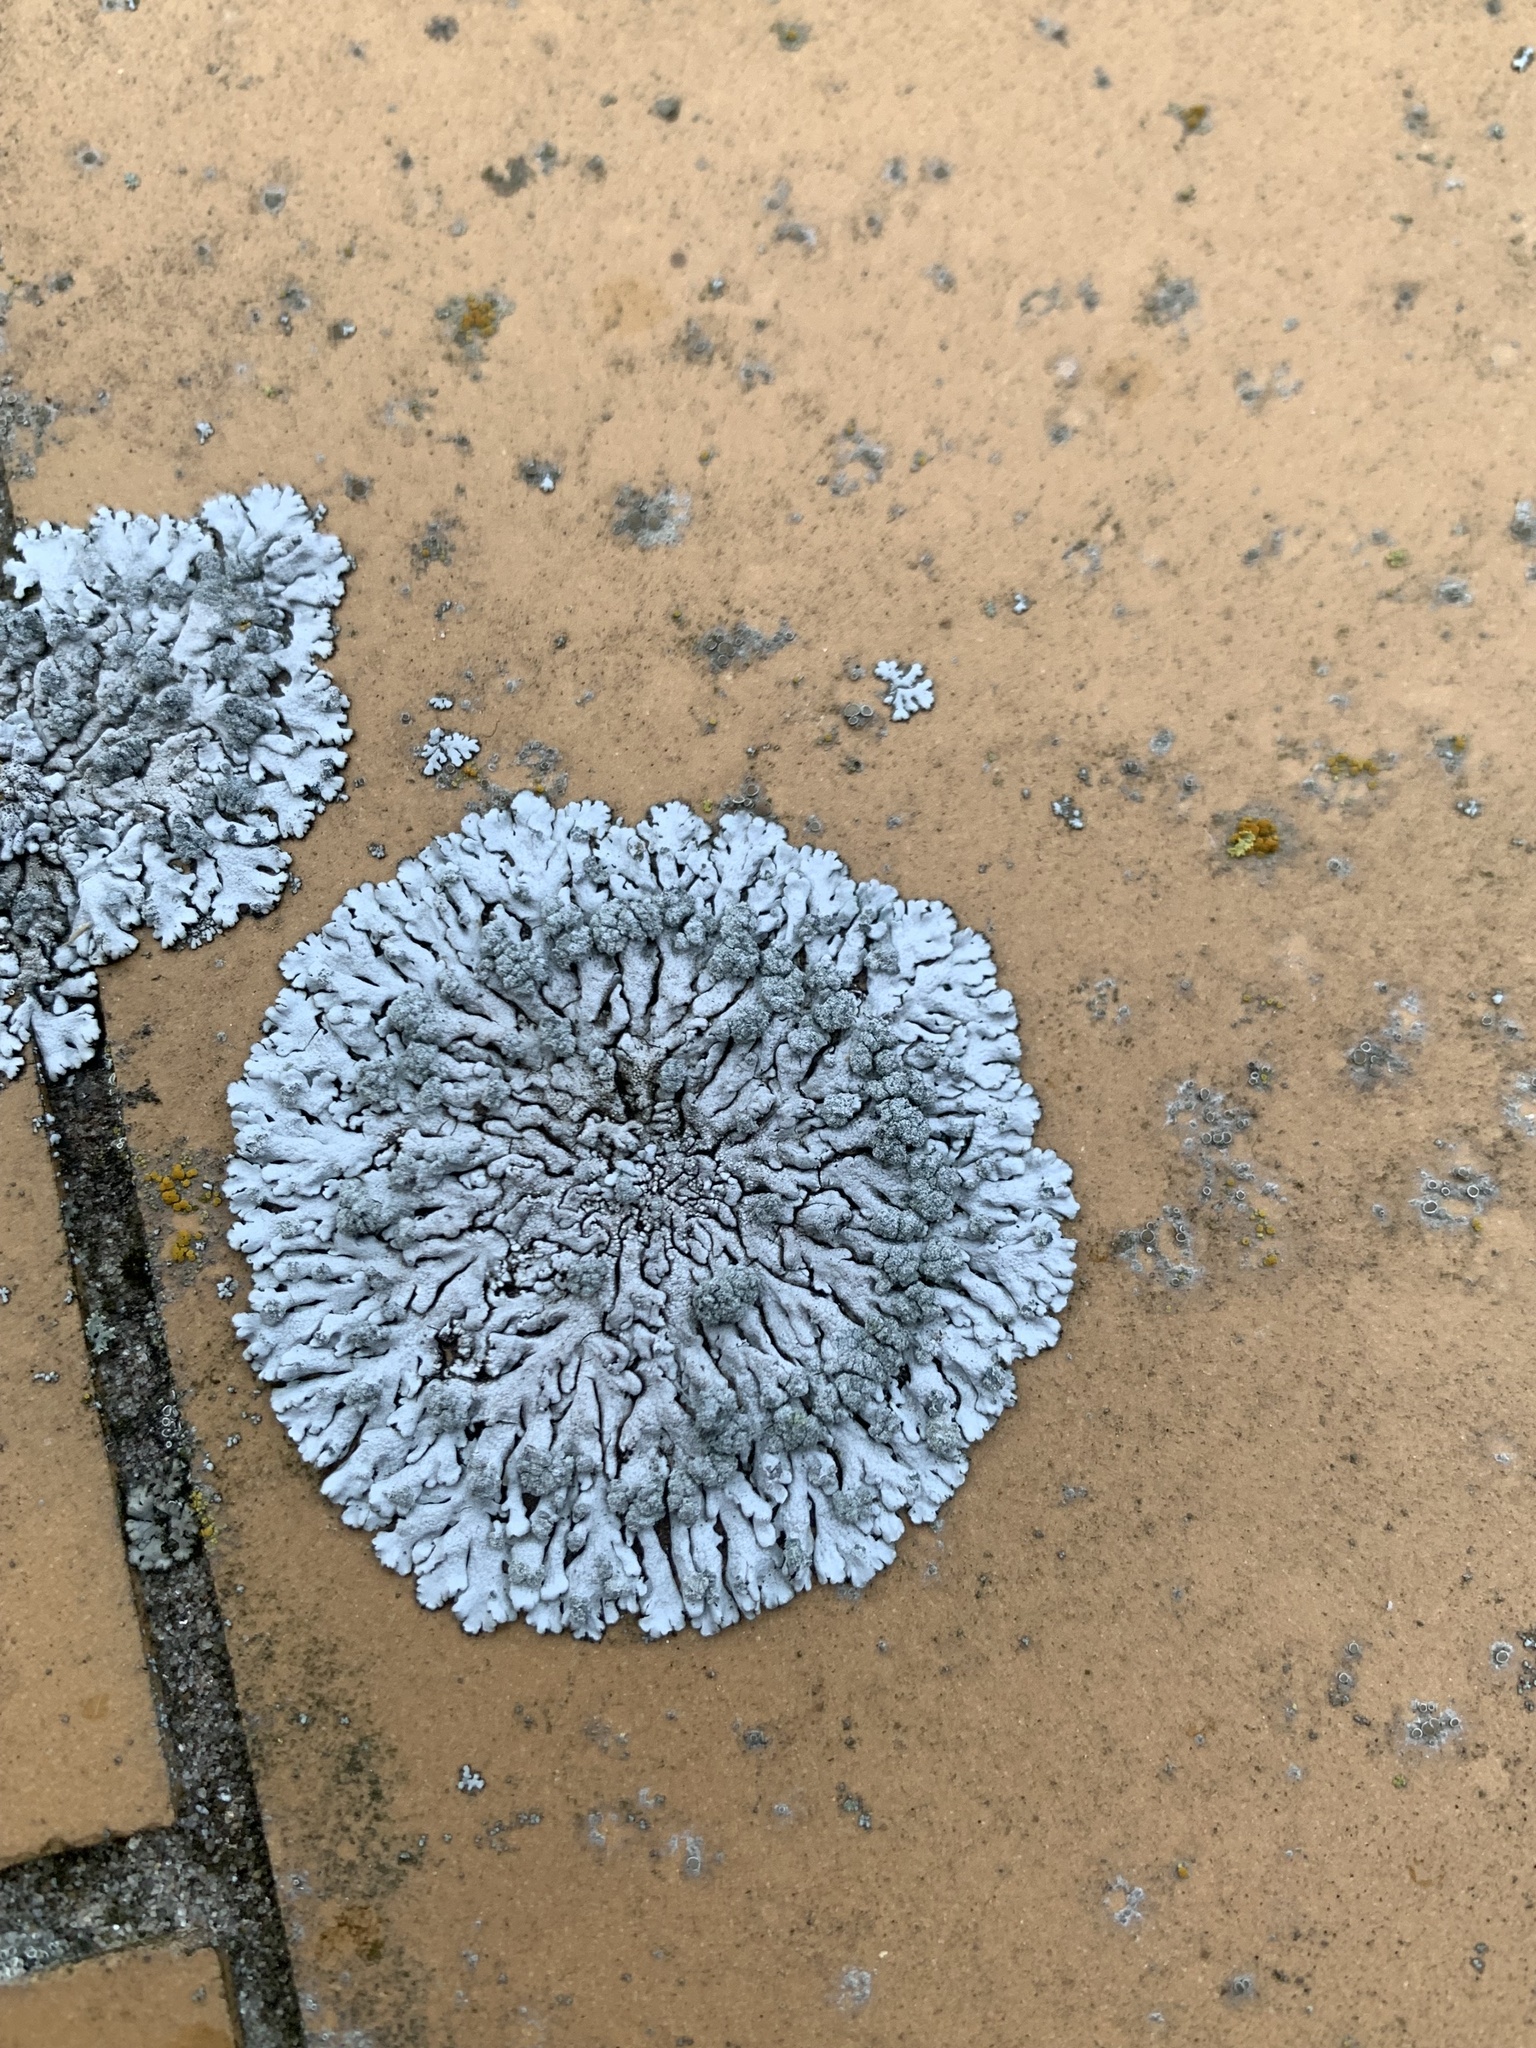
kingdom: Fungi
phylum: Ascomycota
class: Lecanoromycetes
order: Caliciales
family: Physciaceae
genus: Physcia
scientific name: Physcia caesia
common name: Blue-gray rosette lichen
